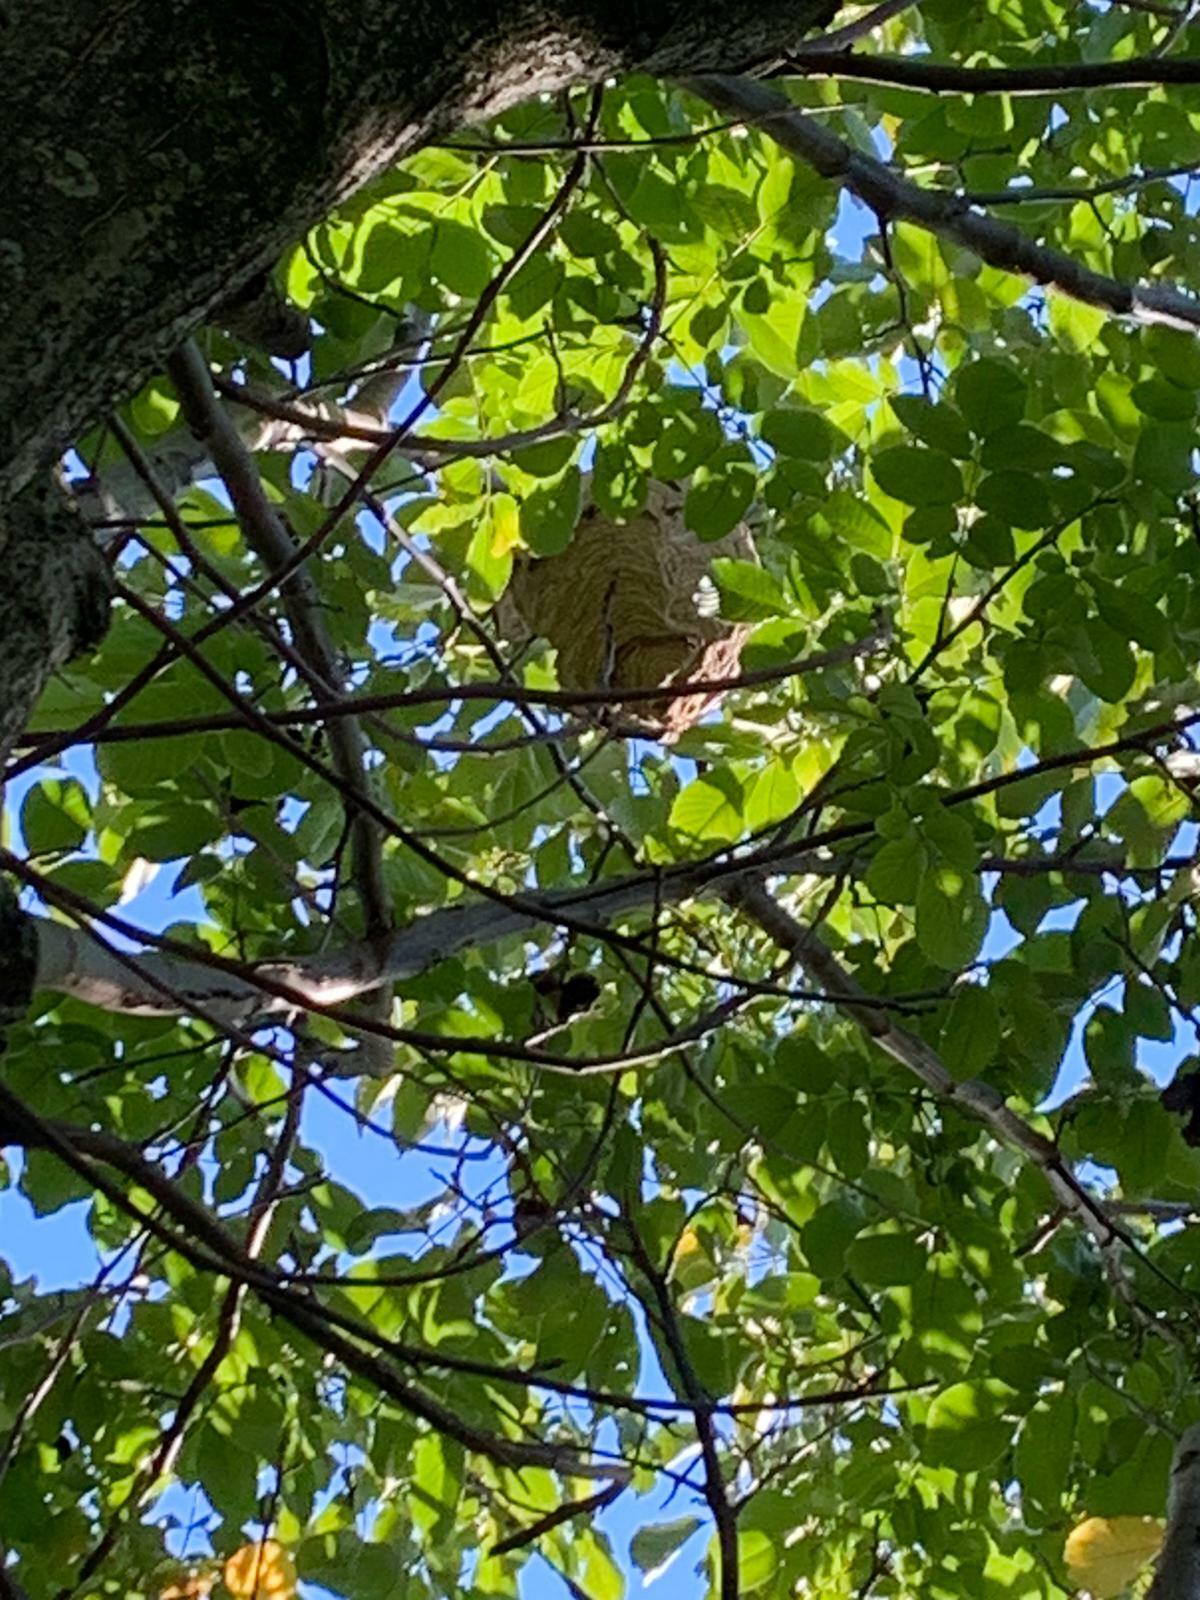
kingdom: Animalia
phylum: Arthropoda
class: Insecta
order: Hymenoptera
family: Vespidae
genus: Vespa
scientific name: Vespa velutina
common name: Asian hornet
